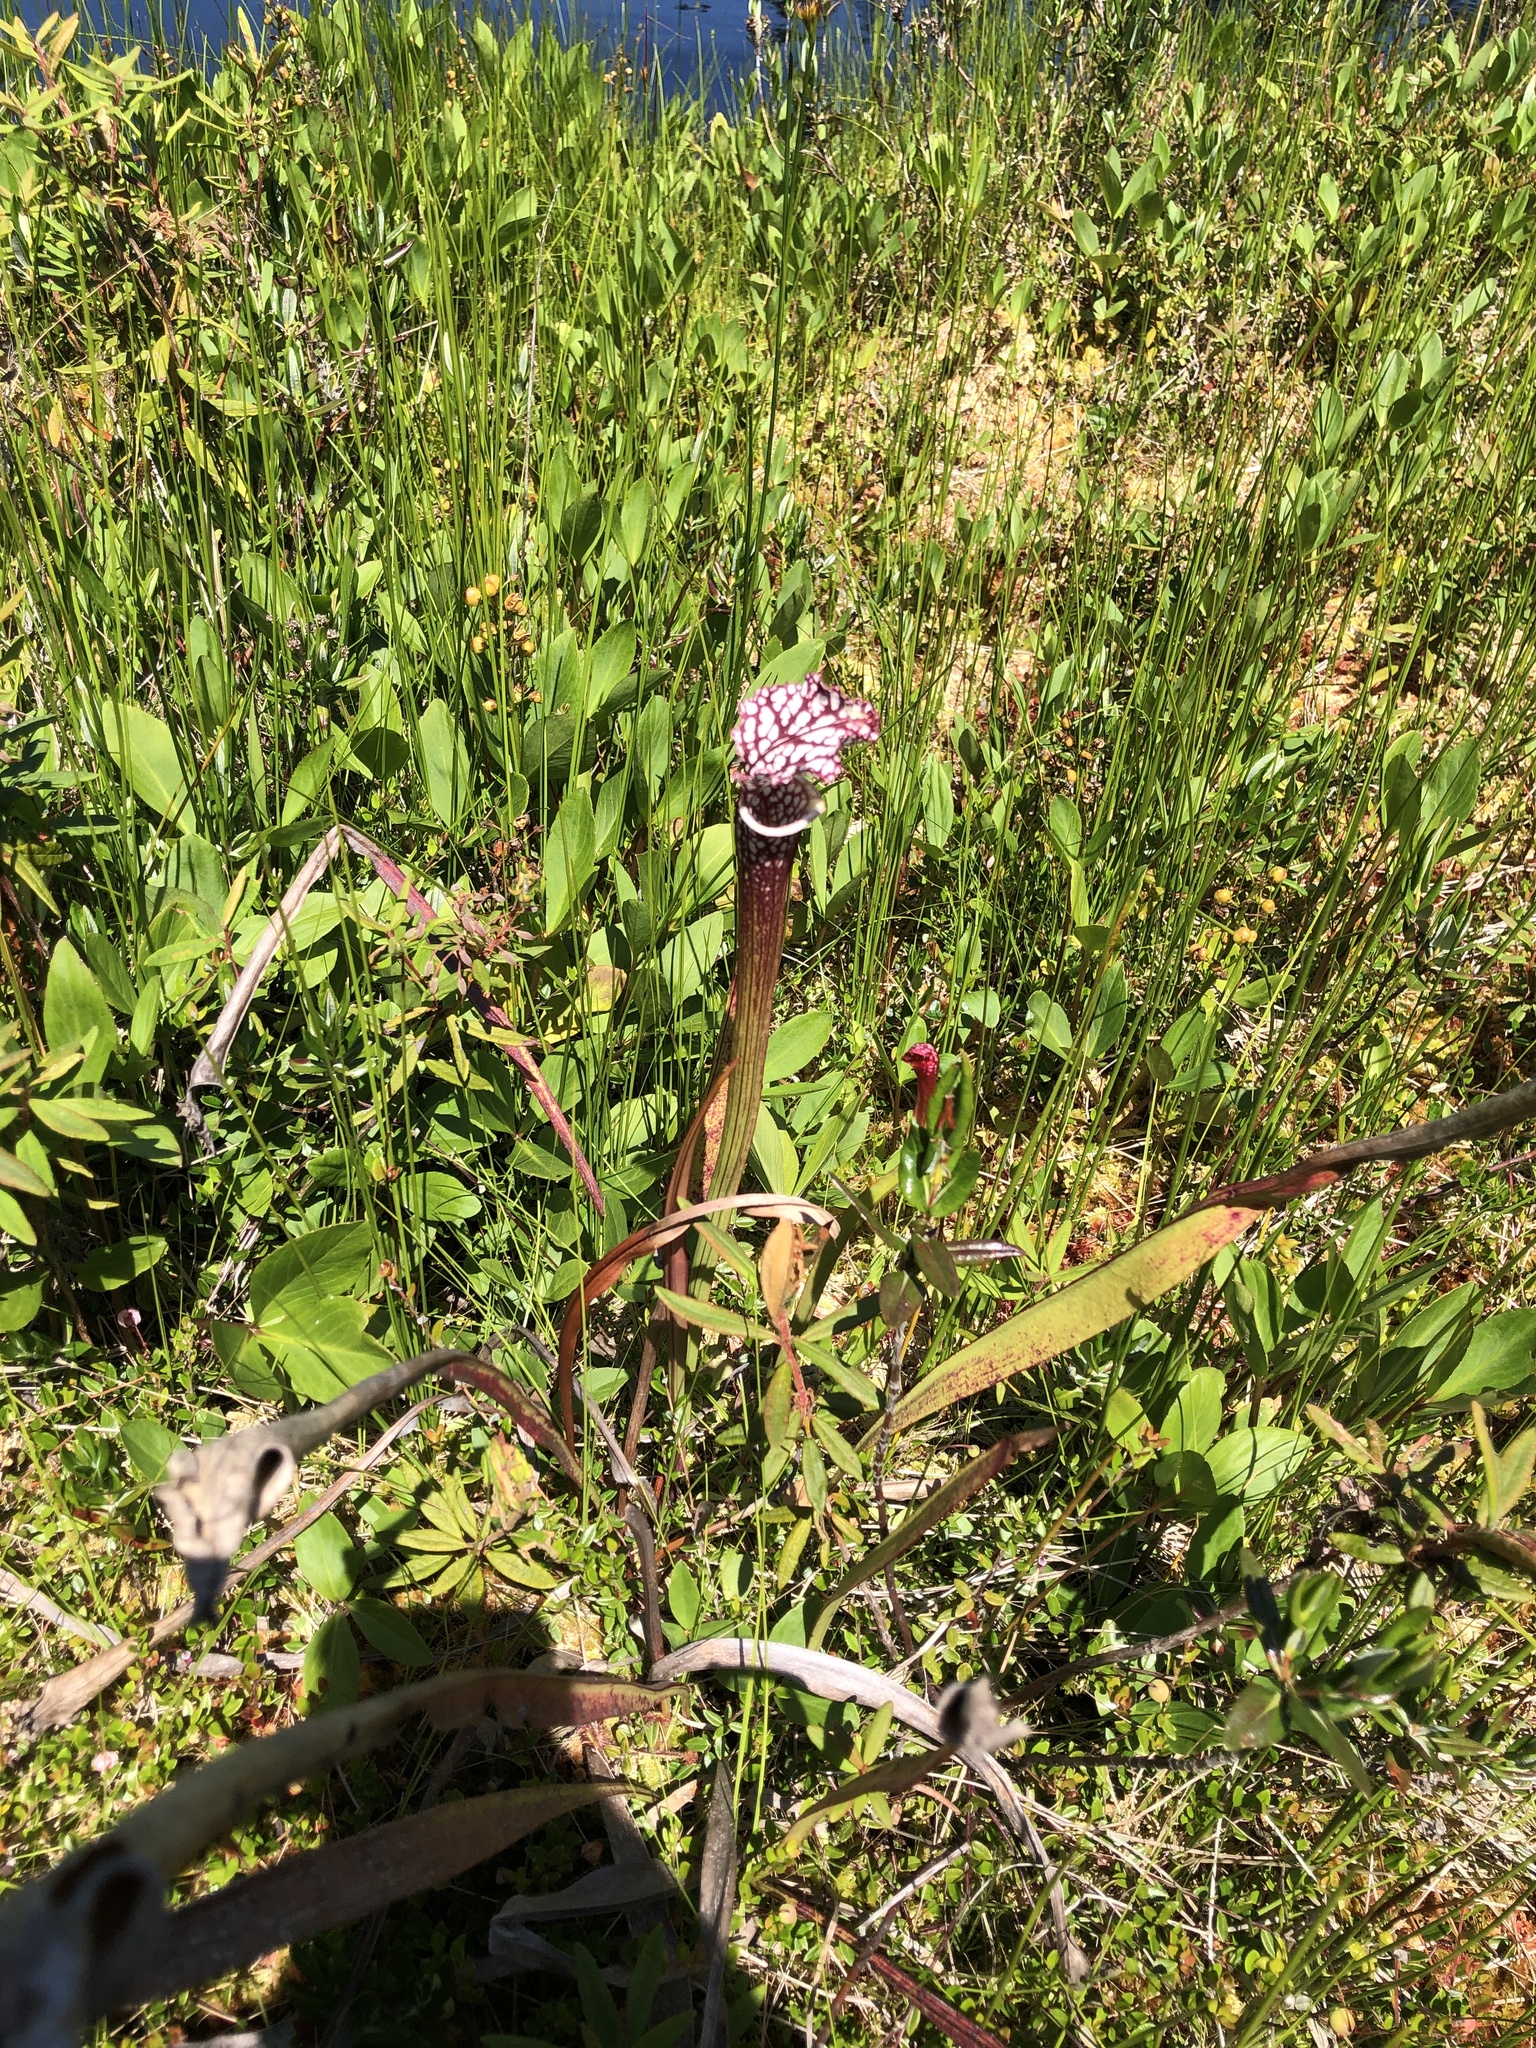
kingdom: Plantae
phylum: Tracheophyta
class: Magnoliopsida
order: Ericales
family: Sarraceniaceae
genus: Sarracenia
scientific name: Sarracenia leucophylla
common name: Purple trumpetleaf
